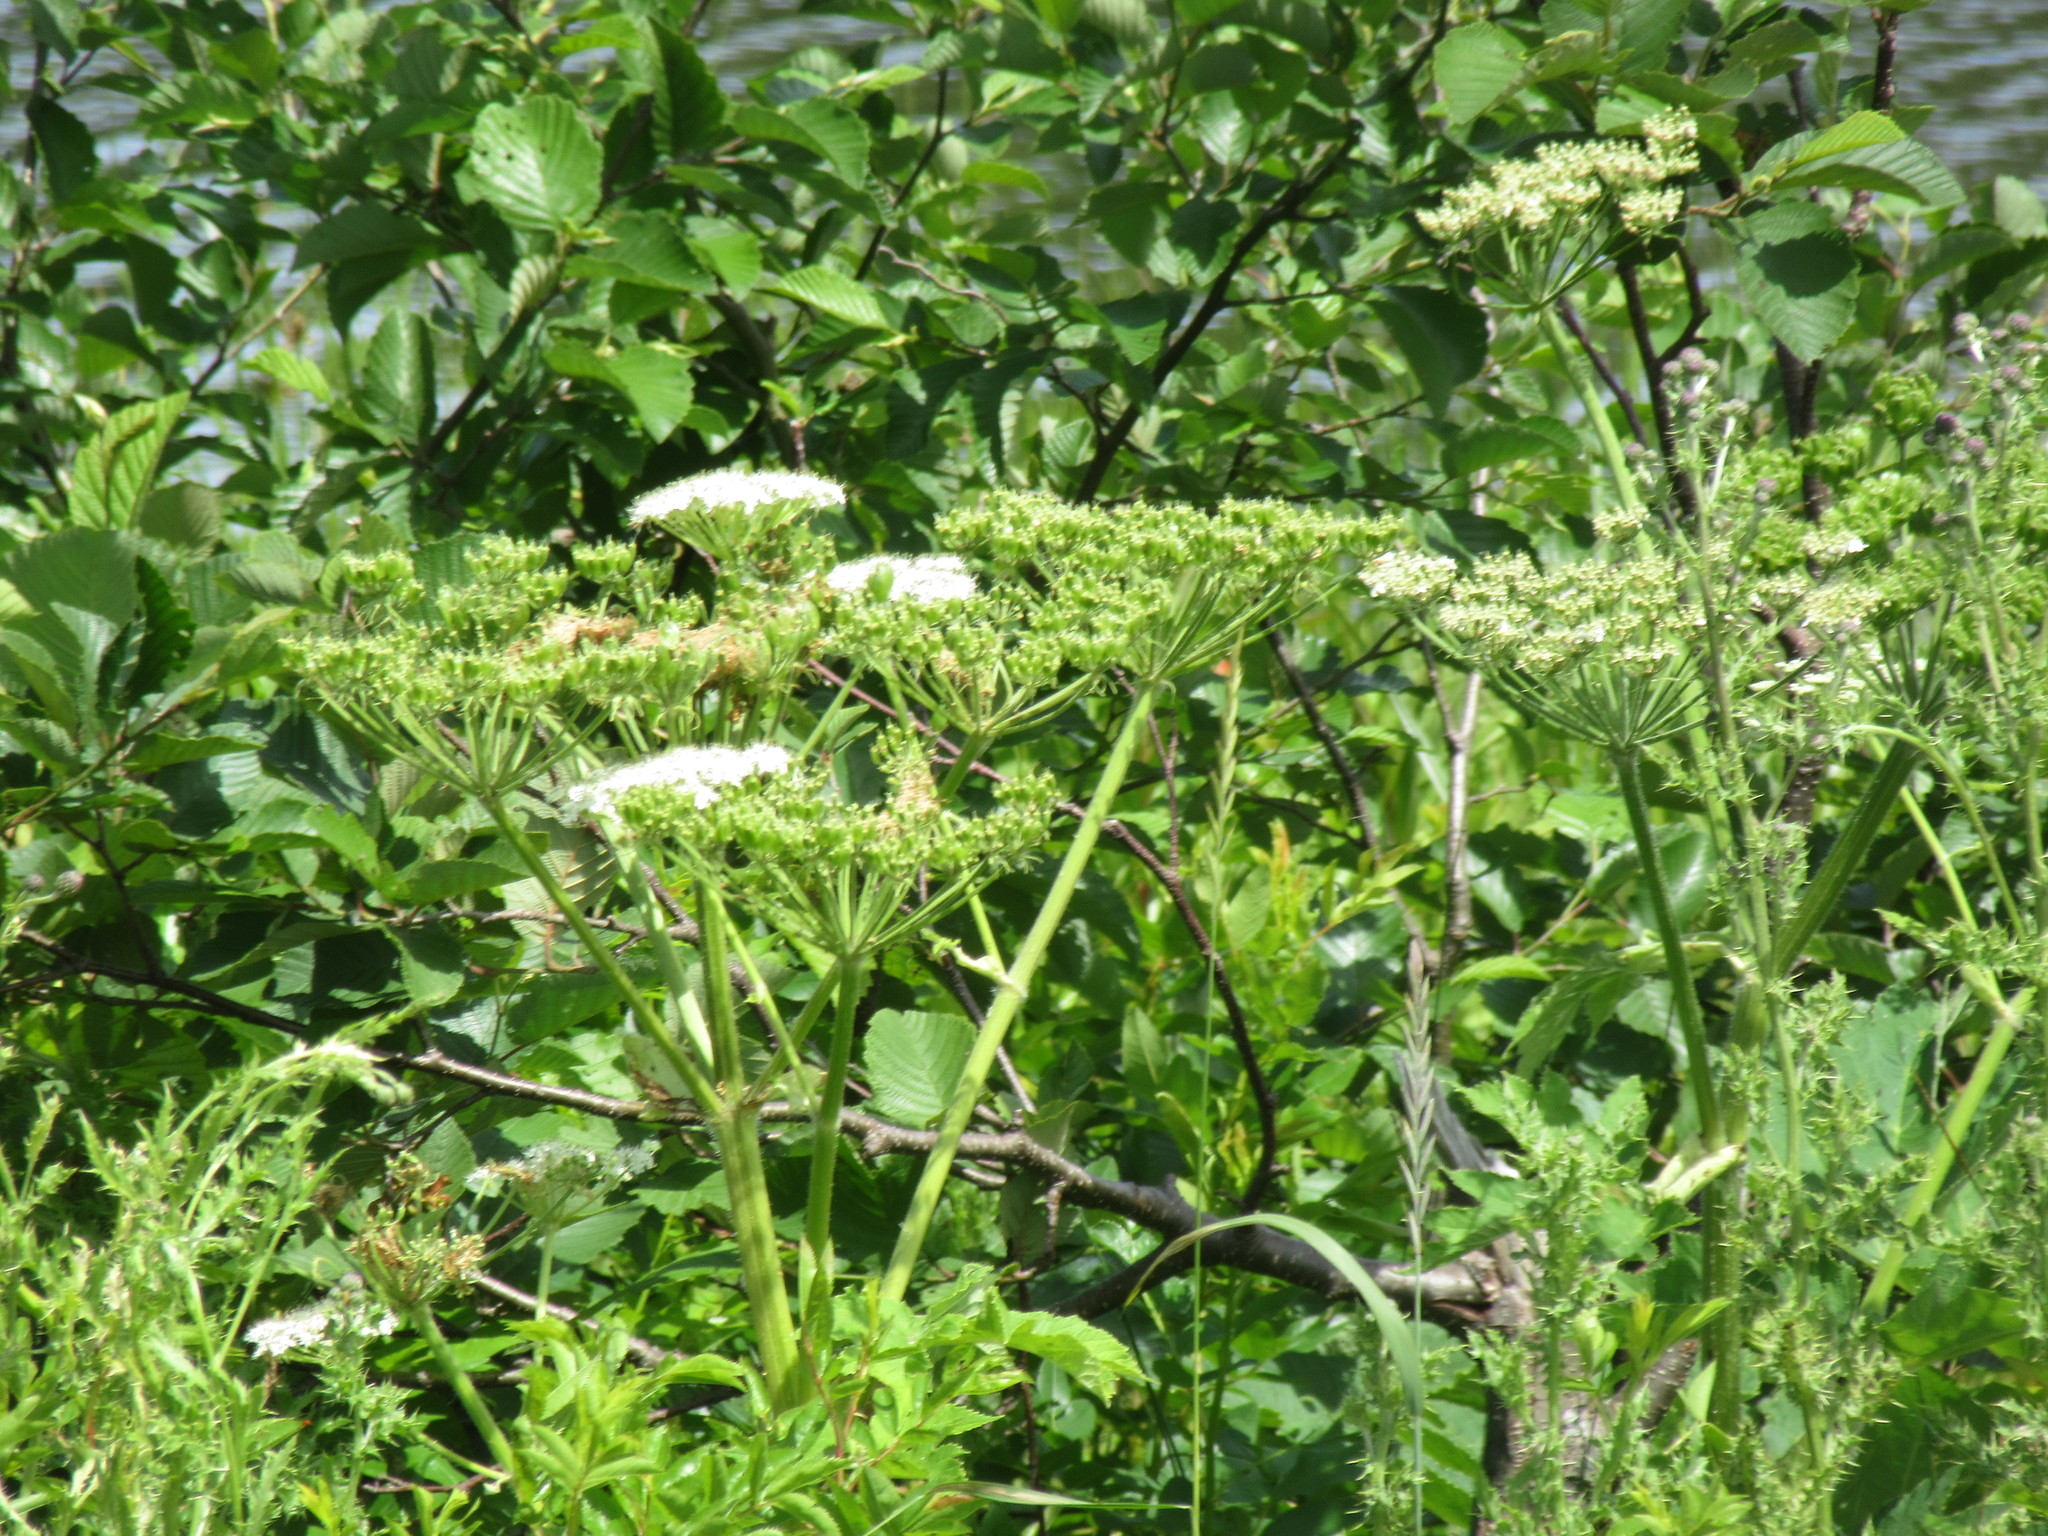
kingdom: Plantae
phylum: Tracheophyta
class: Magnoliopsida
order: Apiales
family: Apiaceae
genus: Heracleum
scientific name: Heracleum maximum
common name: American cow parsnip
